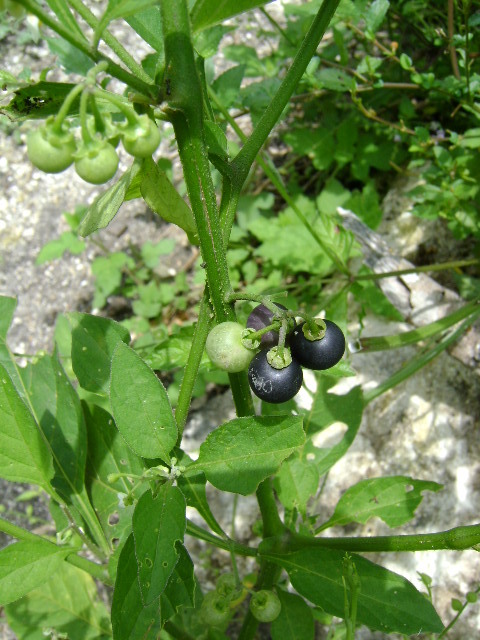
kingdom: Plantae
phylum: Tracheophyta
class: Magnoliopsida
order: Solanales
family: Solanaceae
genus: Solanum
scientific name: Solanum americanum
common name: American black nightshade
